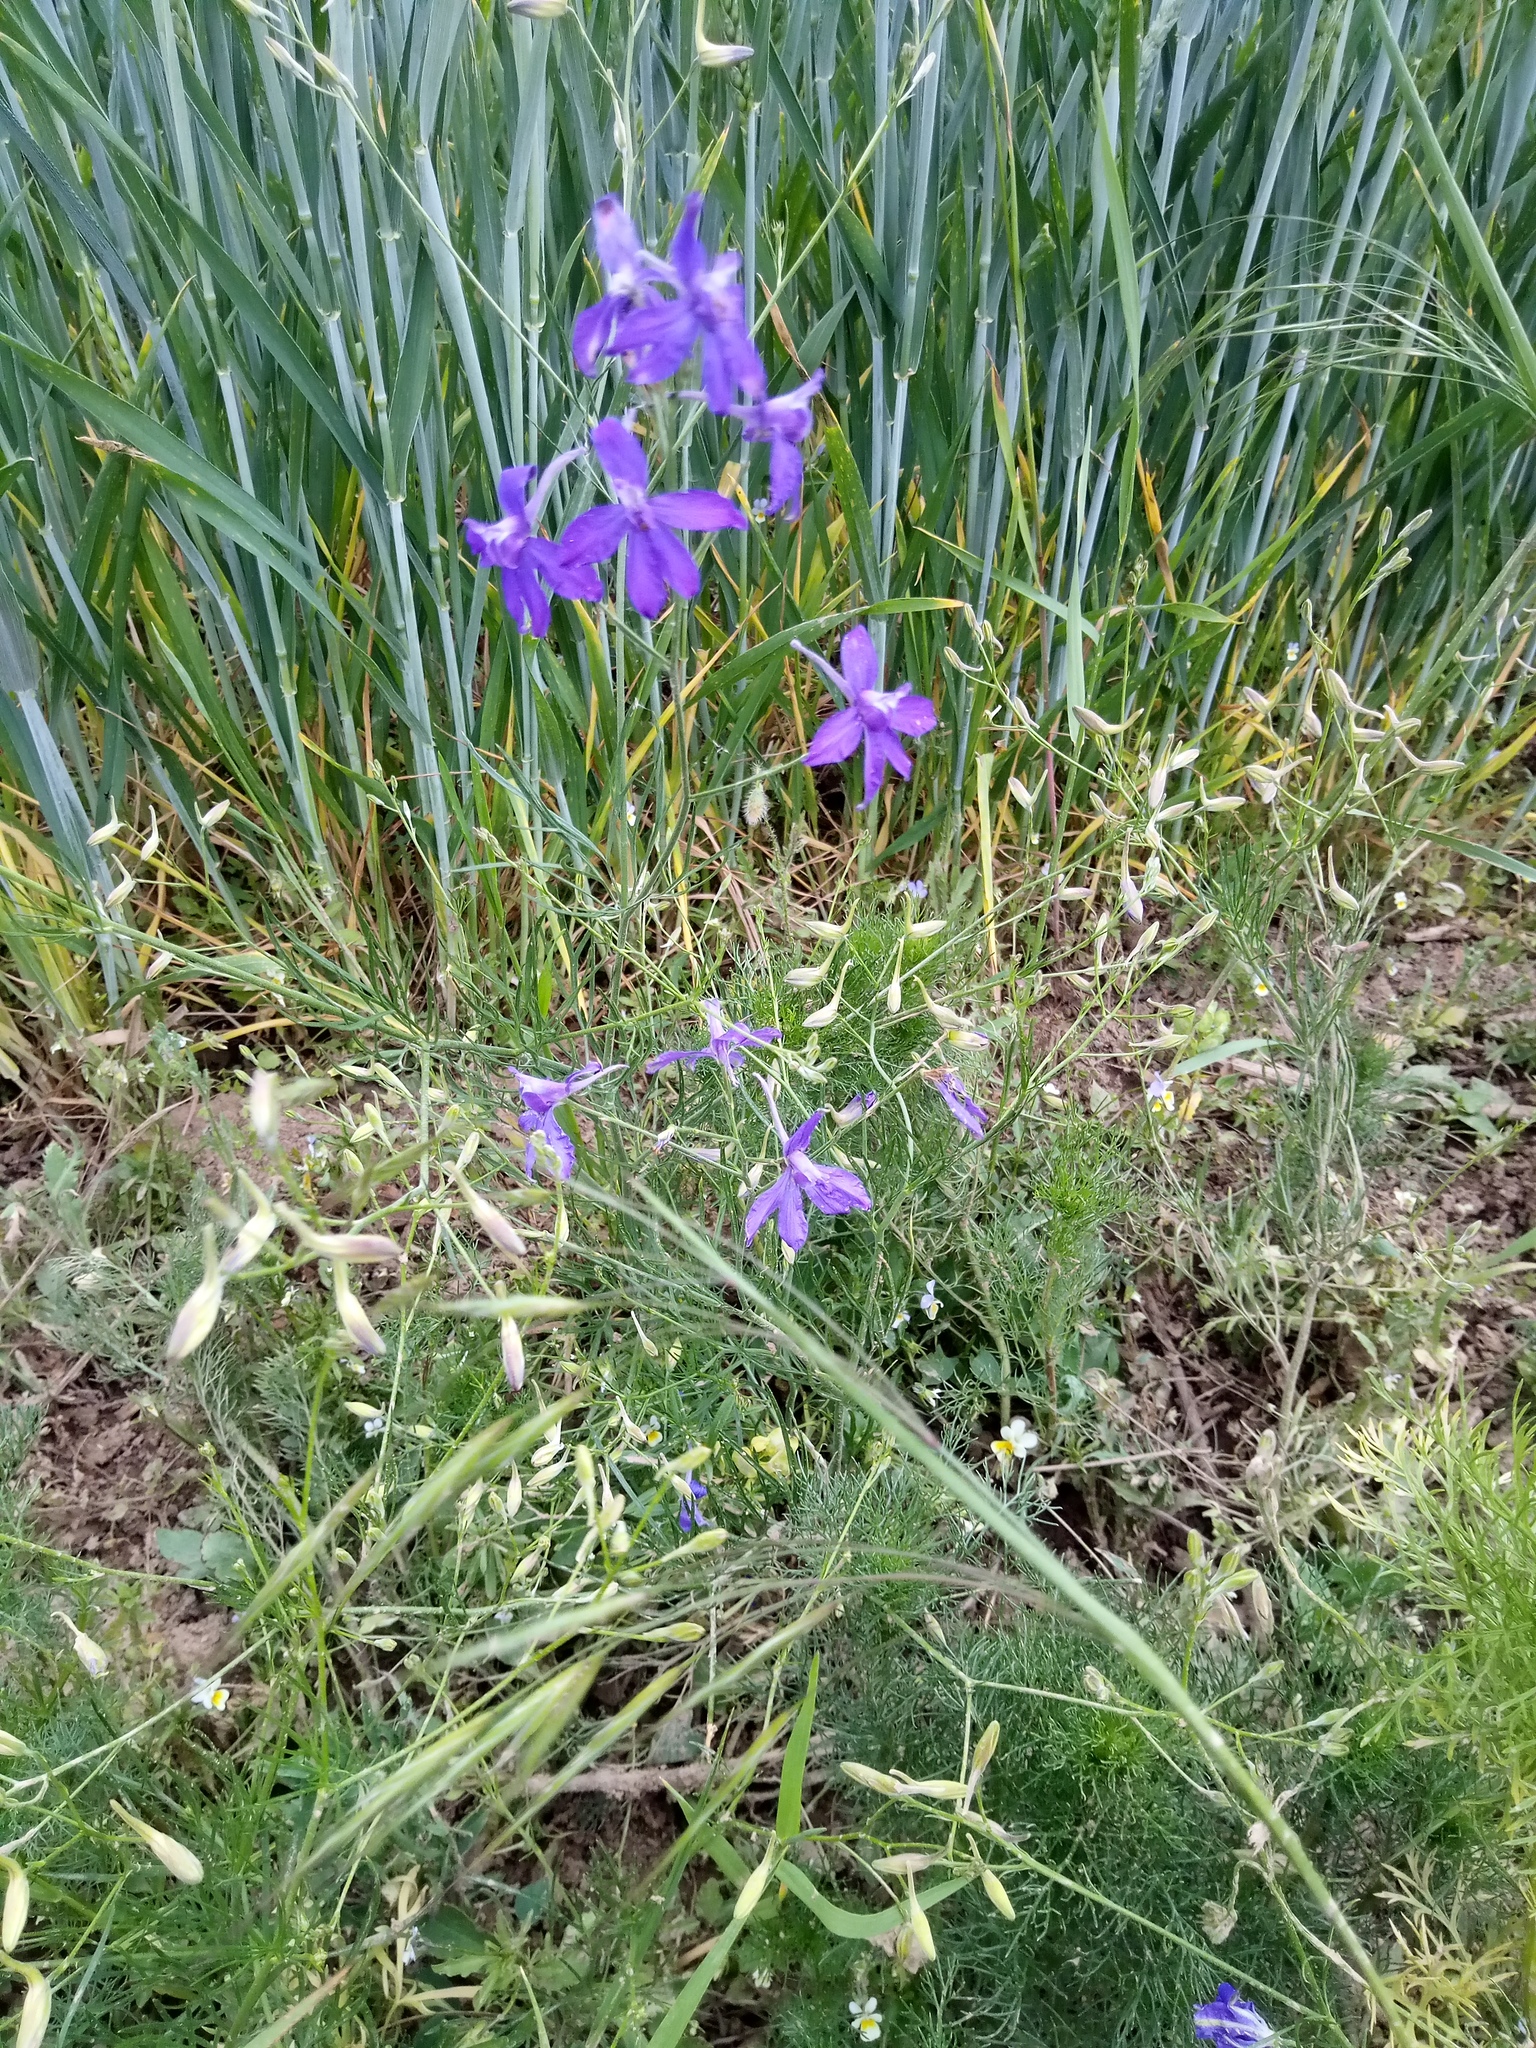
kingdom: Plantae
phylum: Tracheophyta
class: Magnoliopsida
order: Ranunculales
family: Ranunculaceae
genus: Delphinium
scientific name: Delphinium consolida
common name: Branching larkspur
